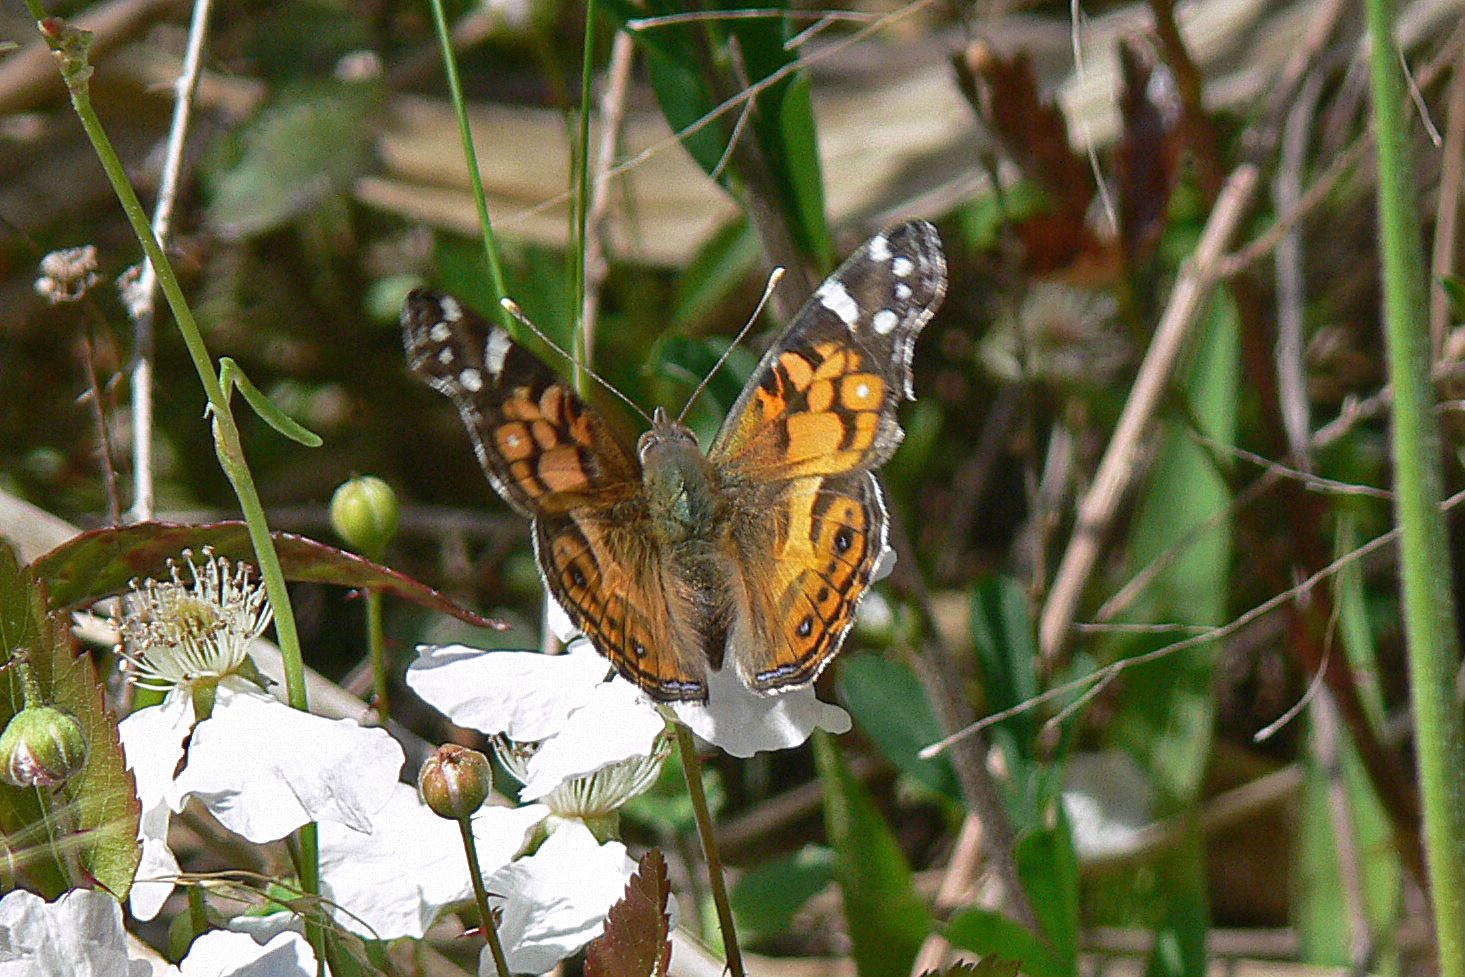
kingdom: Animalia
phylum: Arthropoda
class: Insecta
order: Lepidoptera
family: Nymphalidae
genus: Vanessa
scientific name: Vanessa virginiensis
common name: American lady
